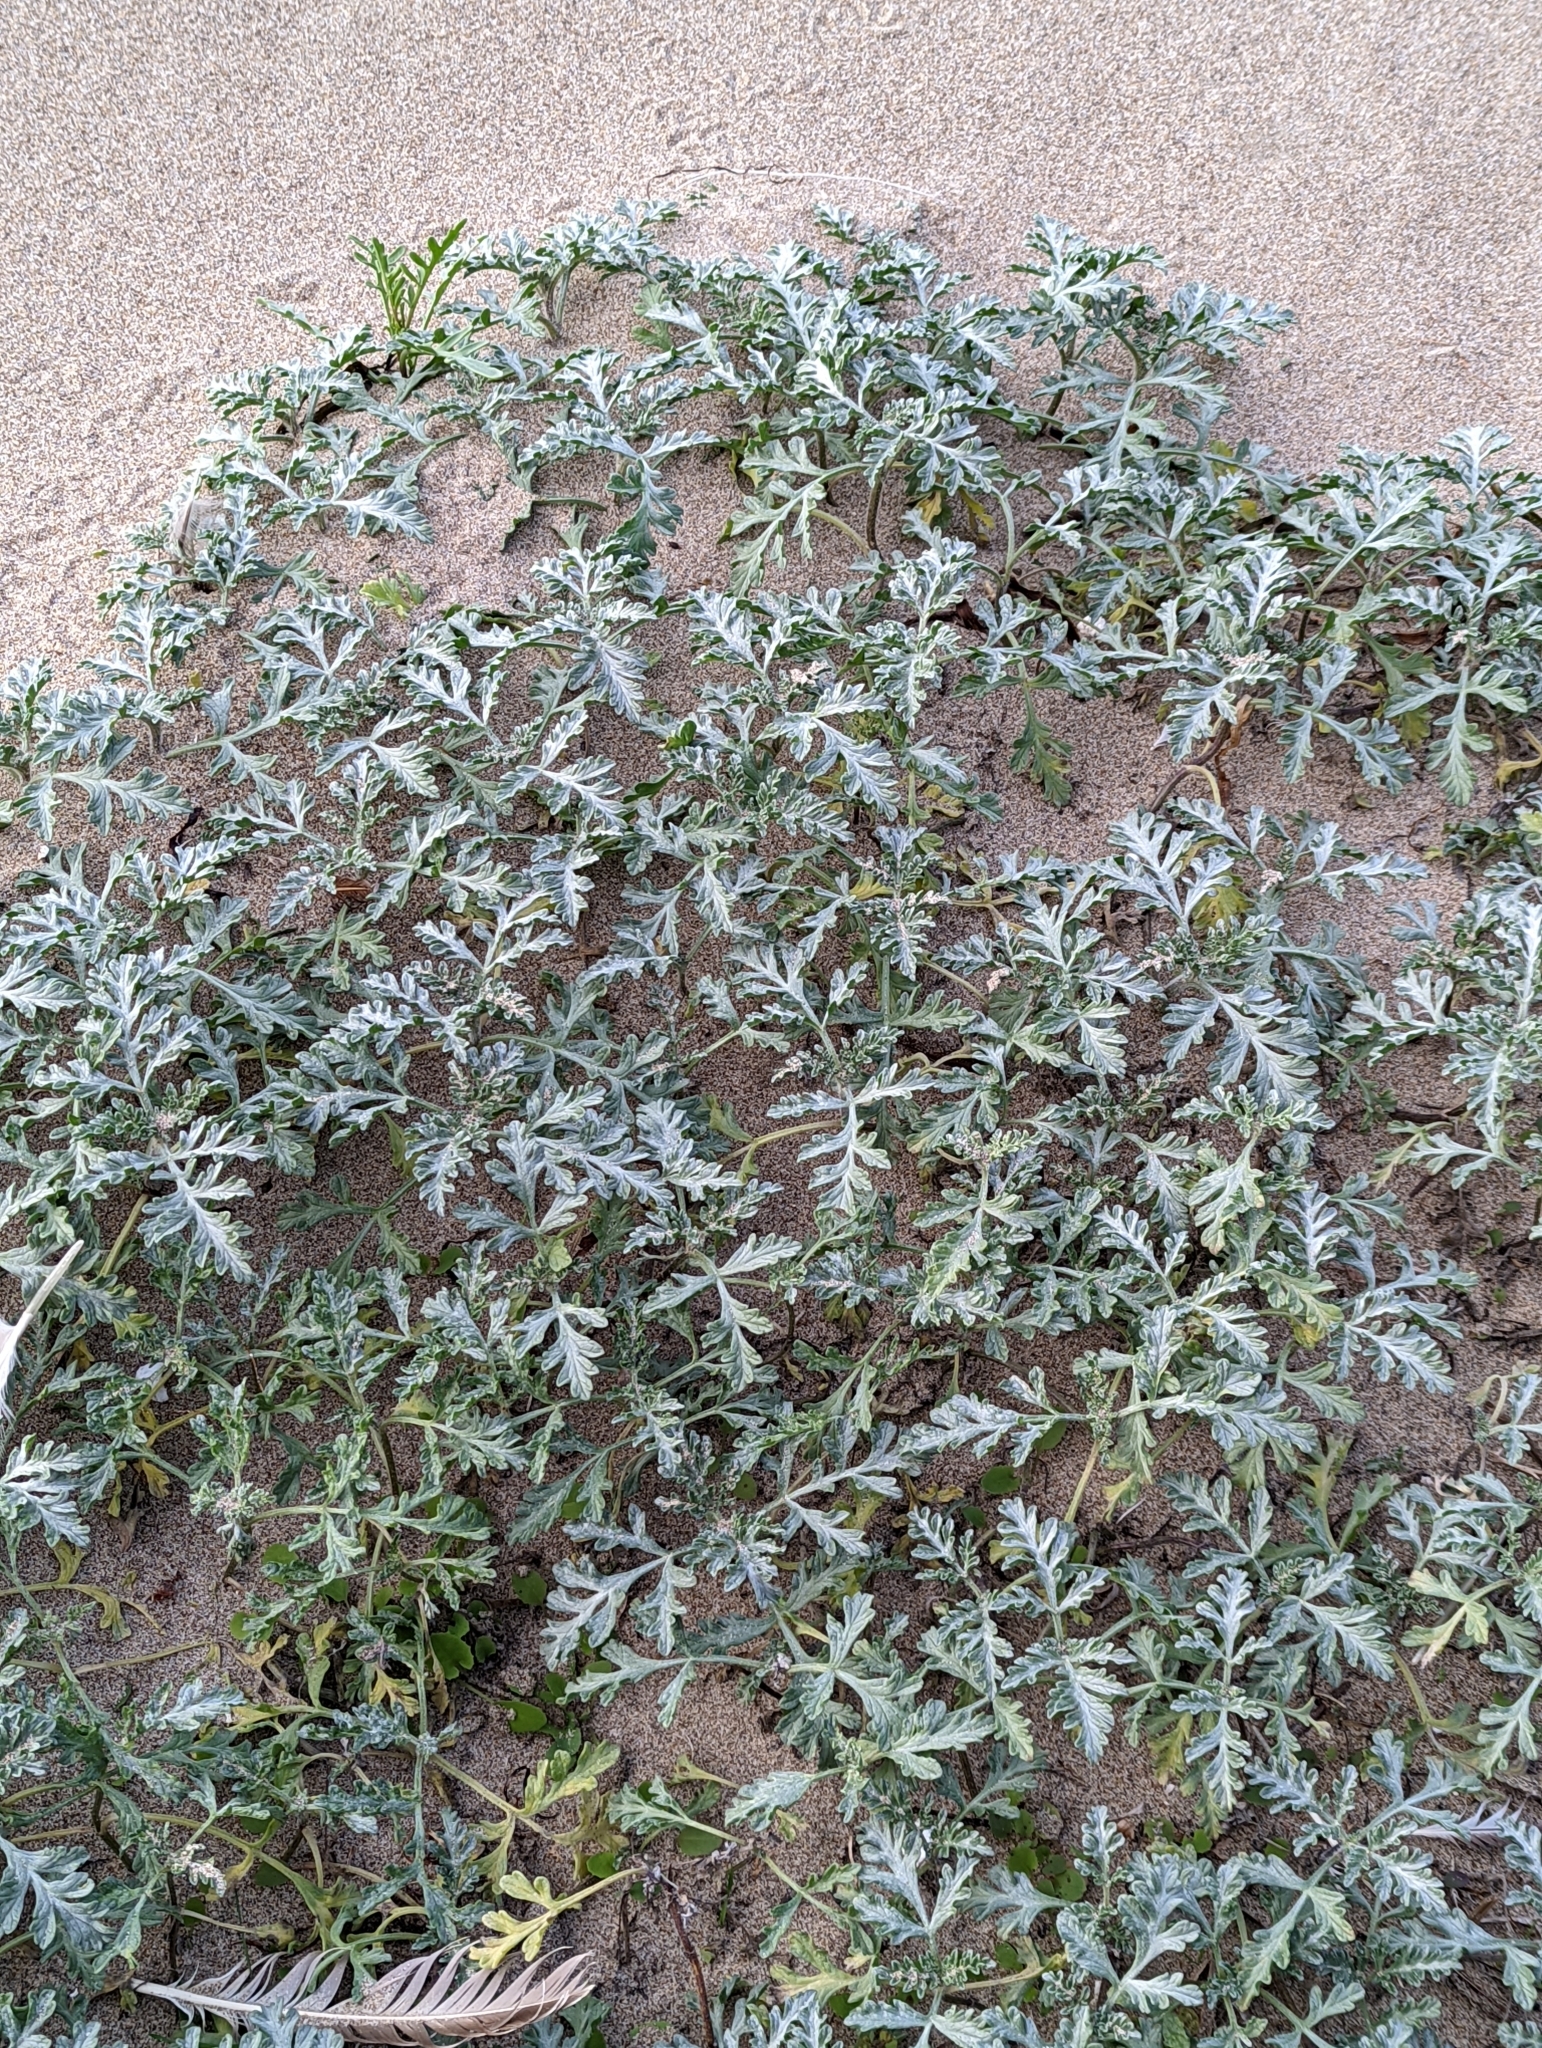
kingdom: Plantae
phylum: Tracheophyta
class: Magnoliopsida
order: Asterales
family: Asteraceae
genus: Ambrosia
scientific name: Ambrosia chamissonis
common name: Beachbur
